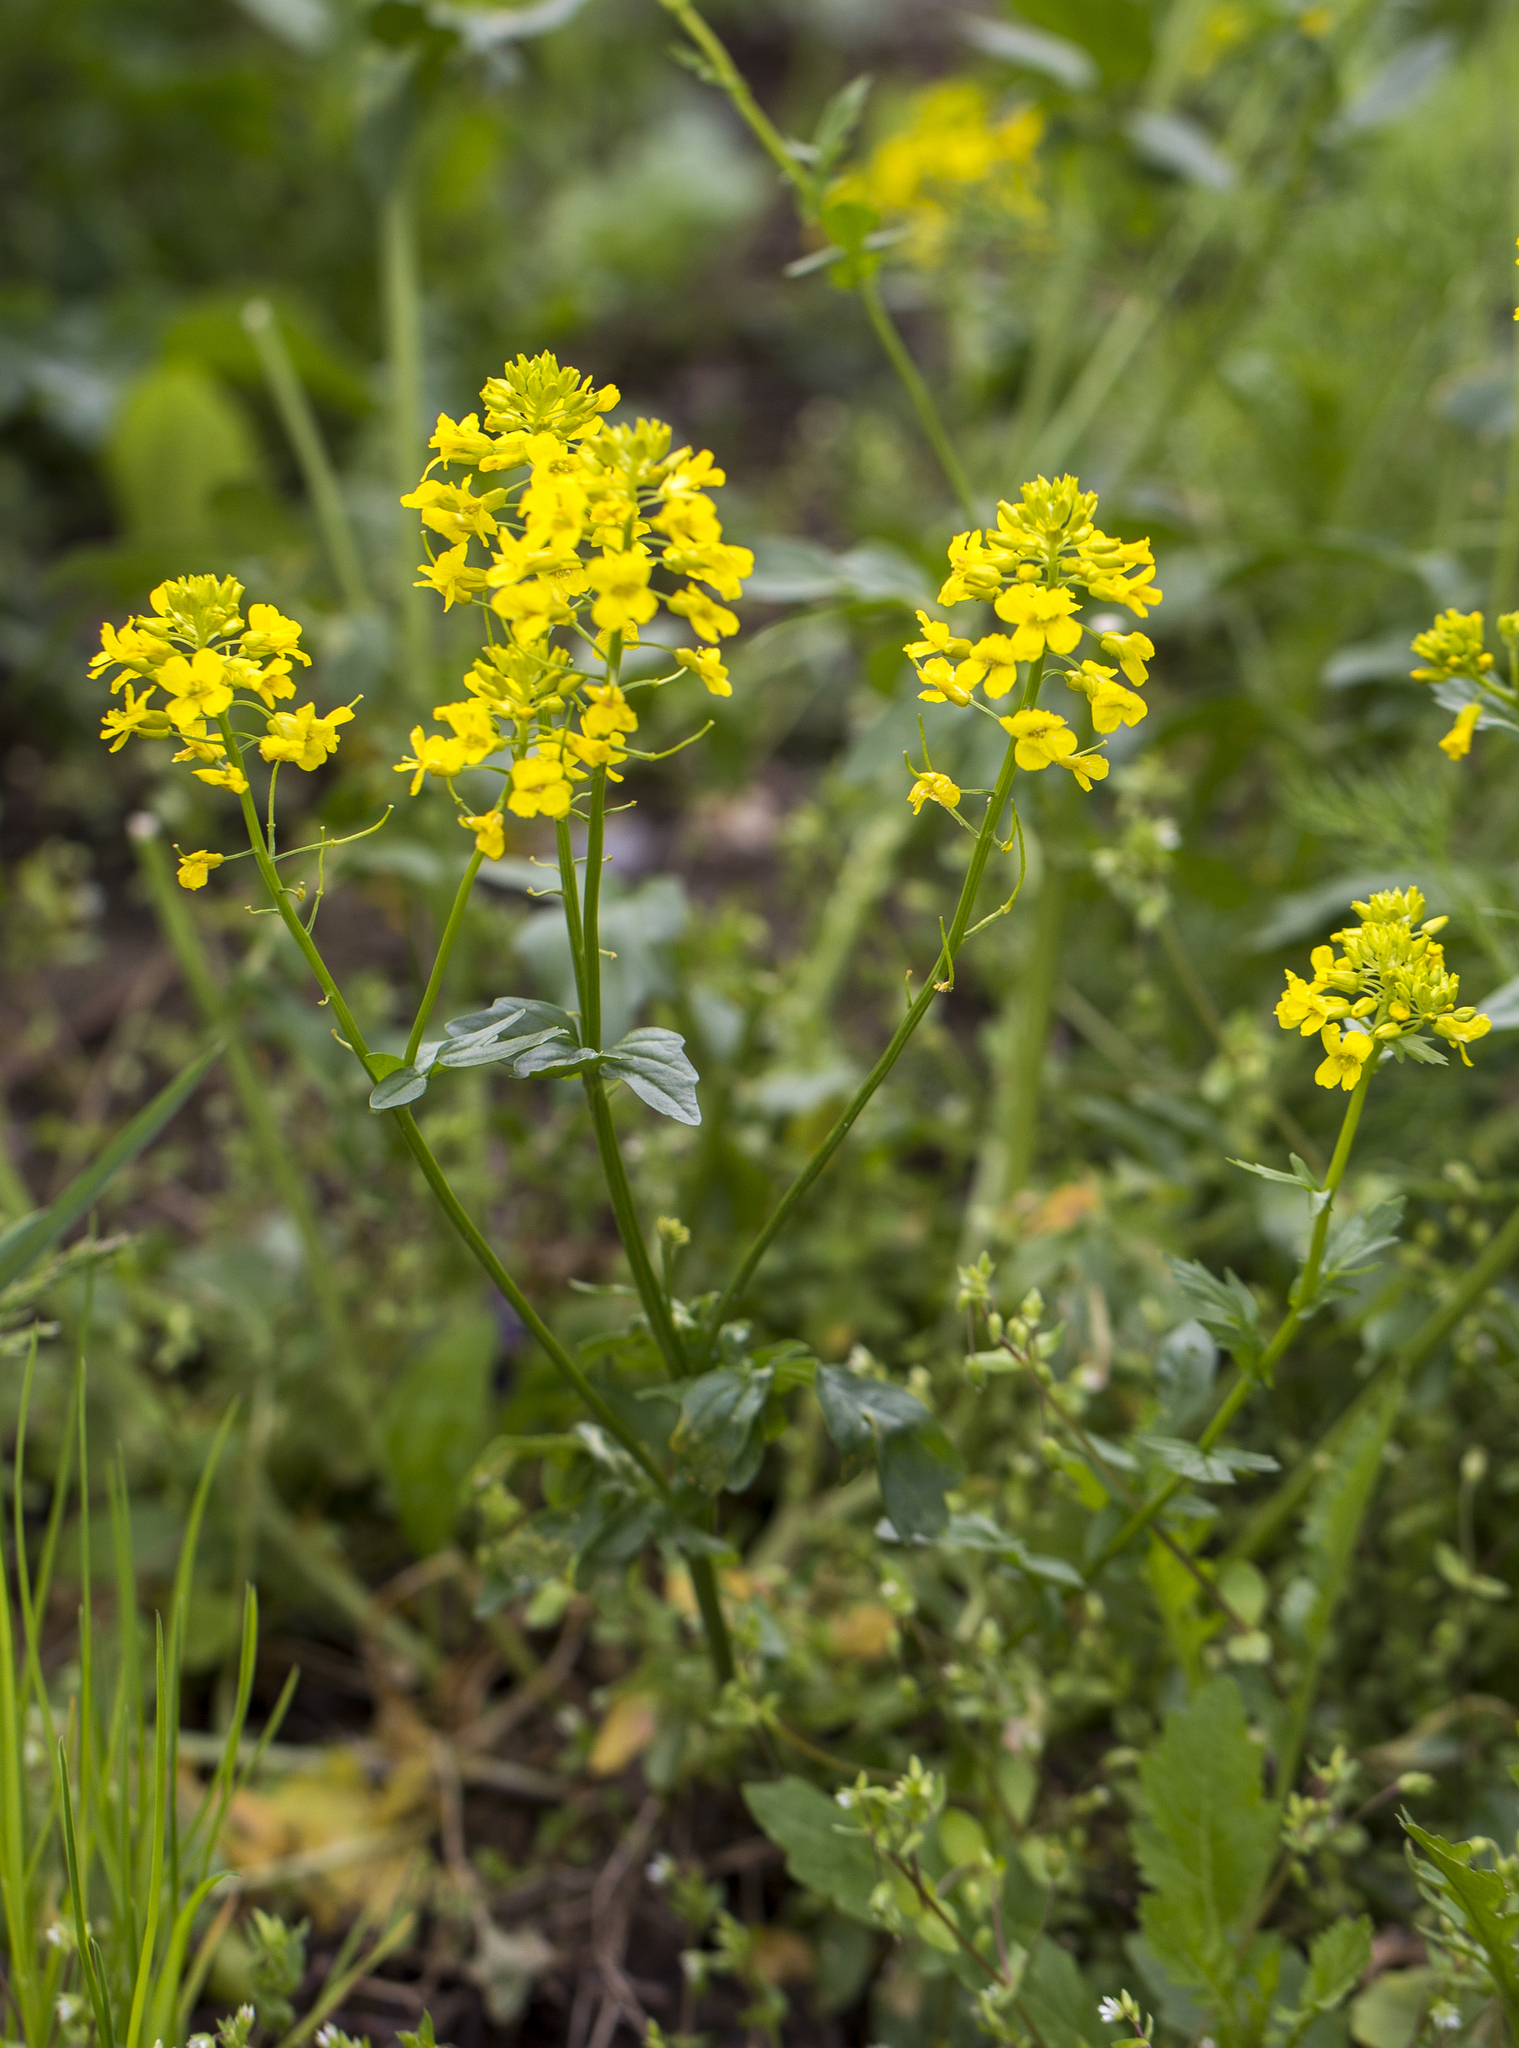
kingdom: Plantae
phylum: Tracheophyta
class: Magnoliopsida
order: Brassicales
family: Brassicaceae
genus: Barbarea
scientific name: Barbarea vulgaris
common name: Cressy-greens
